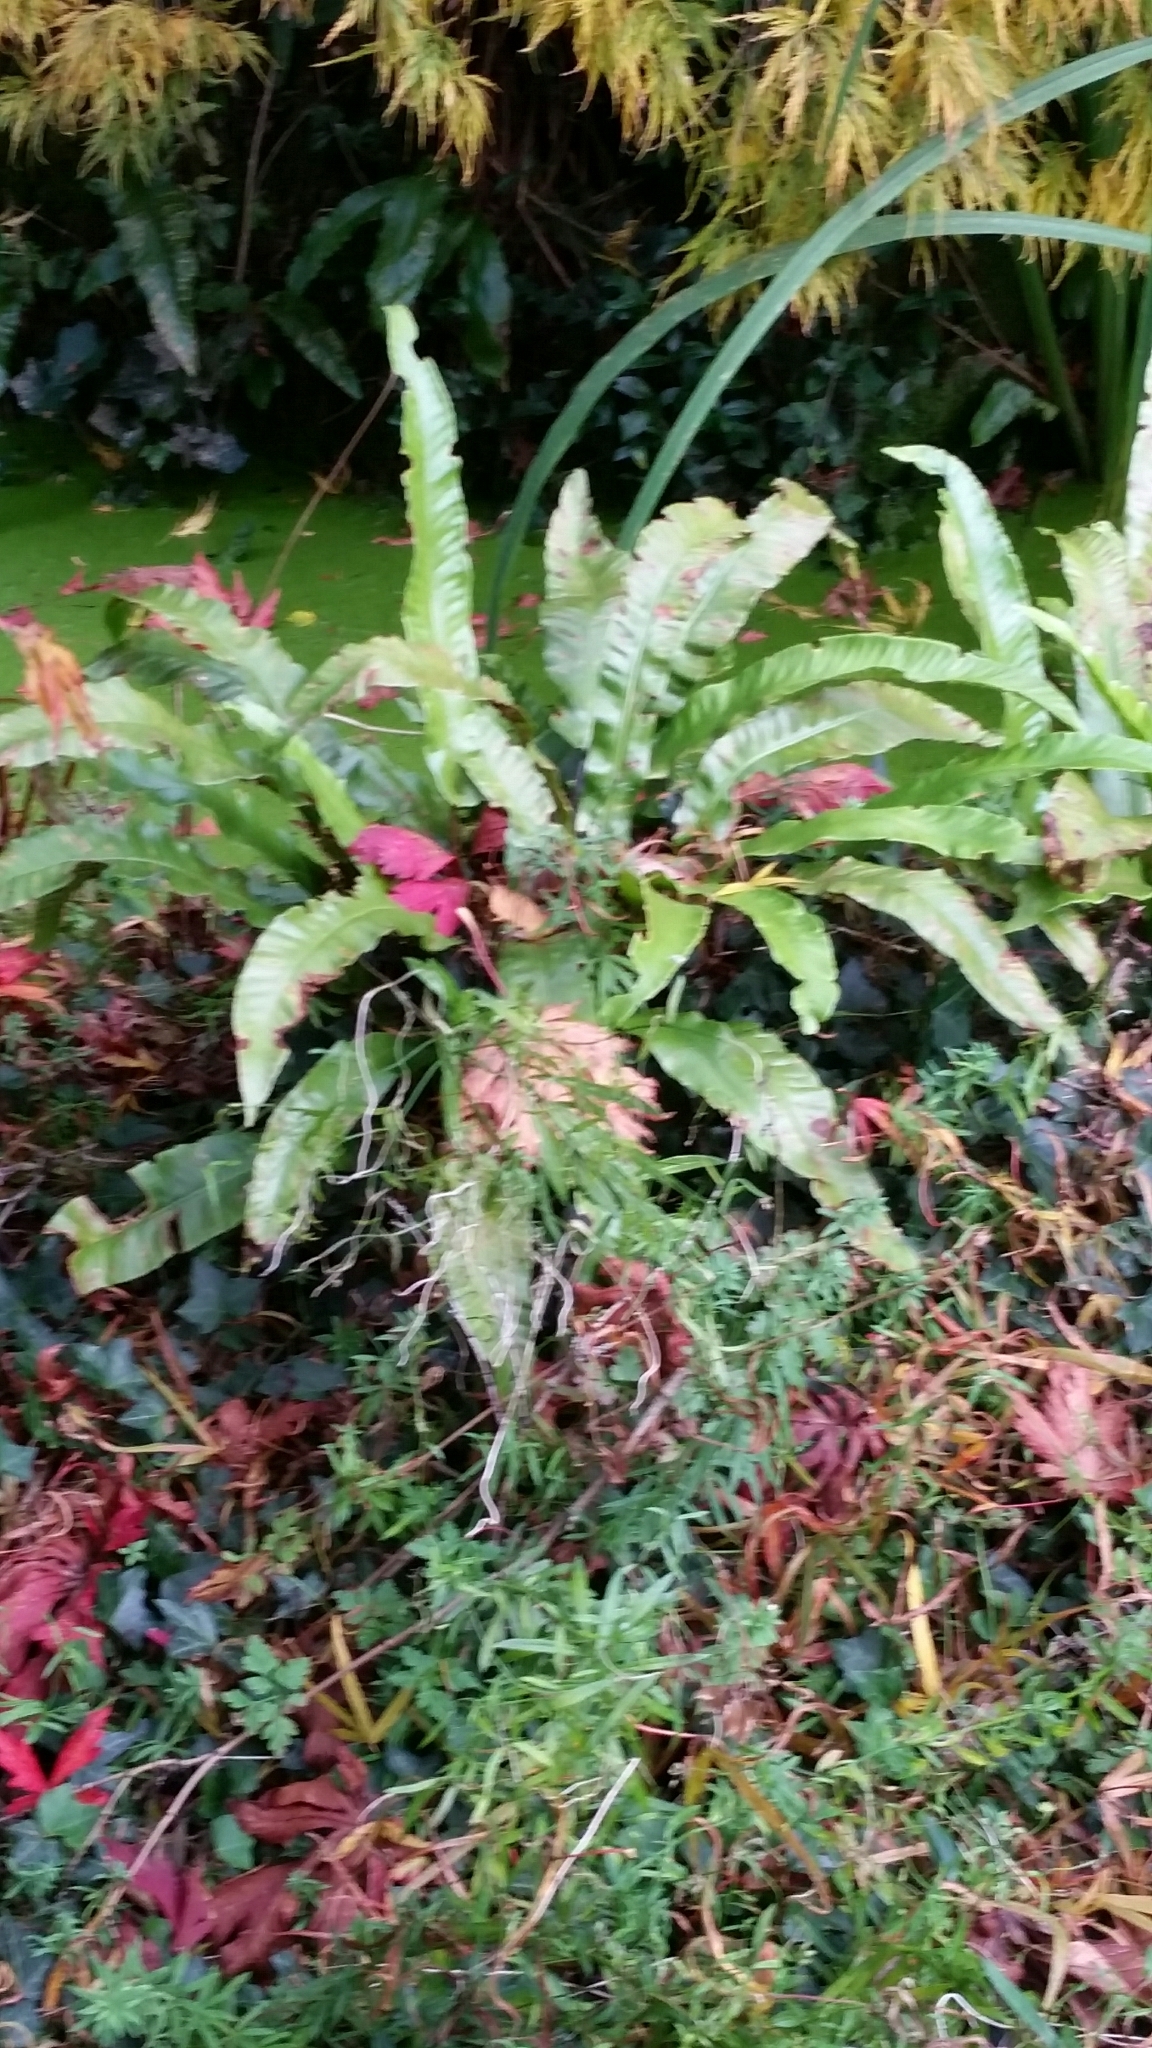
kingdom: Plantae
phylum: Tracheophyta
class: Polypodiopsida
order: Polypodiales
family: Aspleniaceae
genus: Asplenium
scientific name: Asplenium scolopendrium
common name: Hart's-tongue fern
